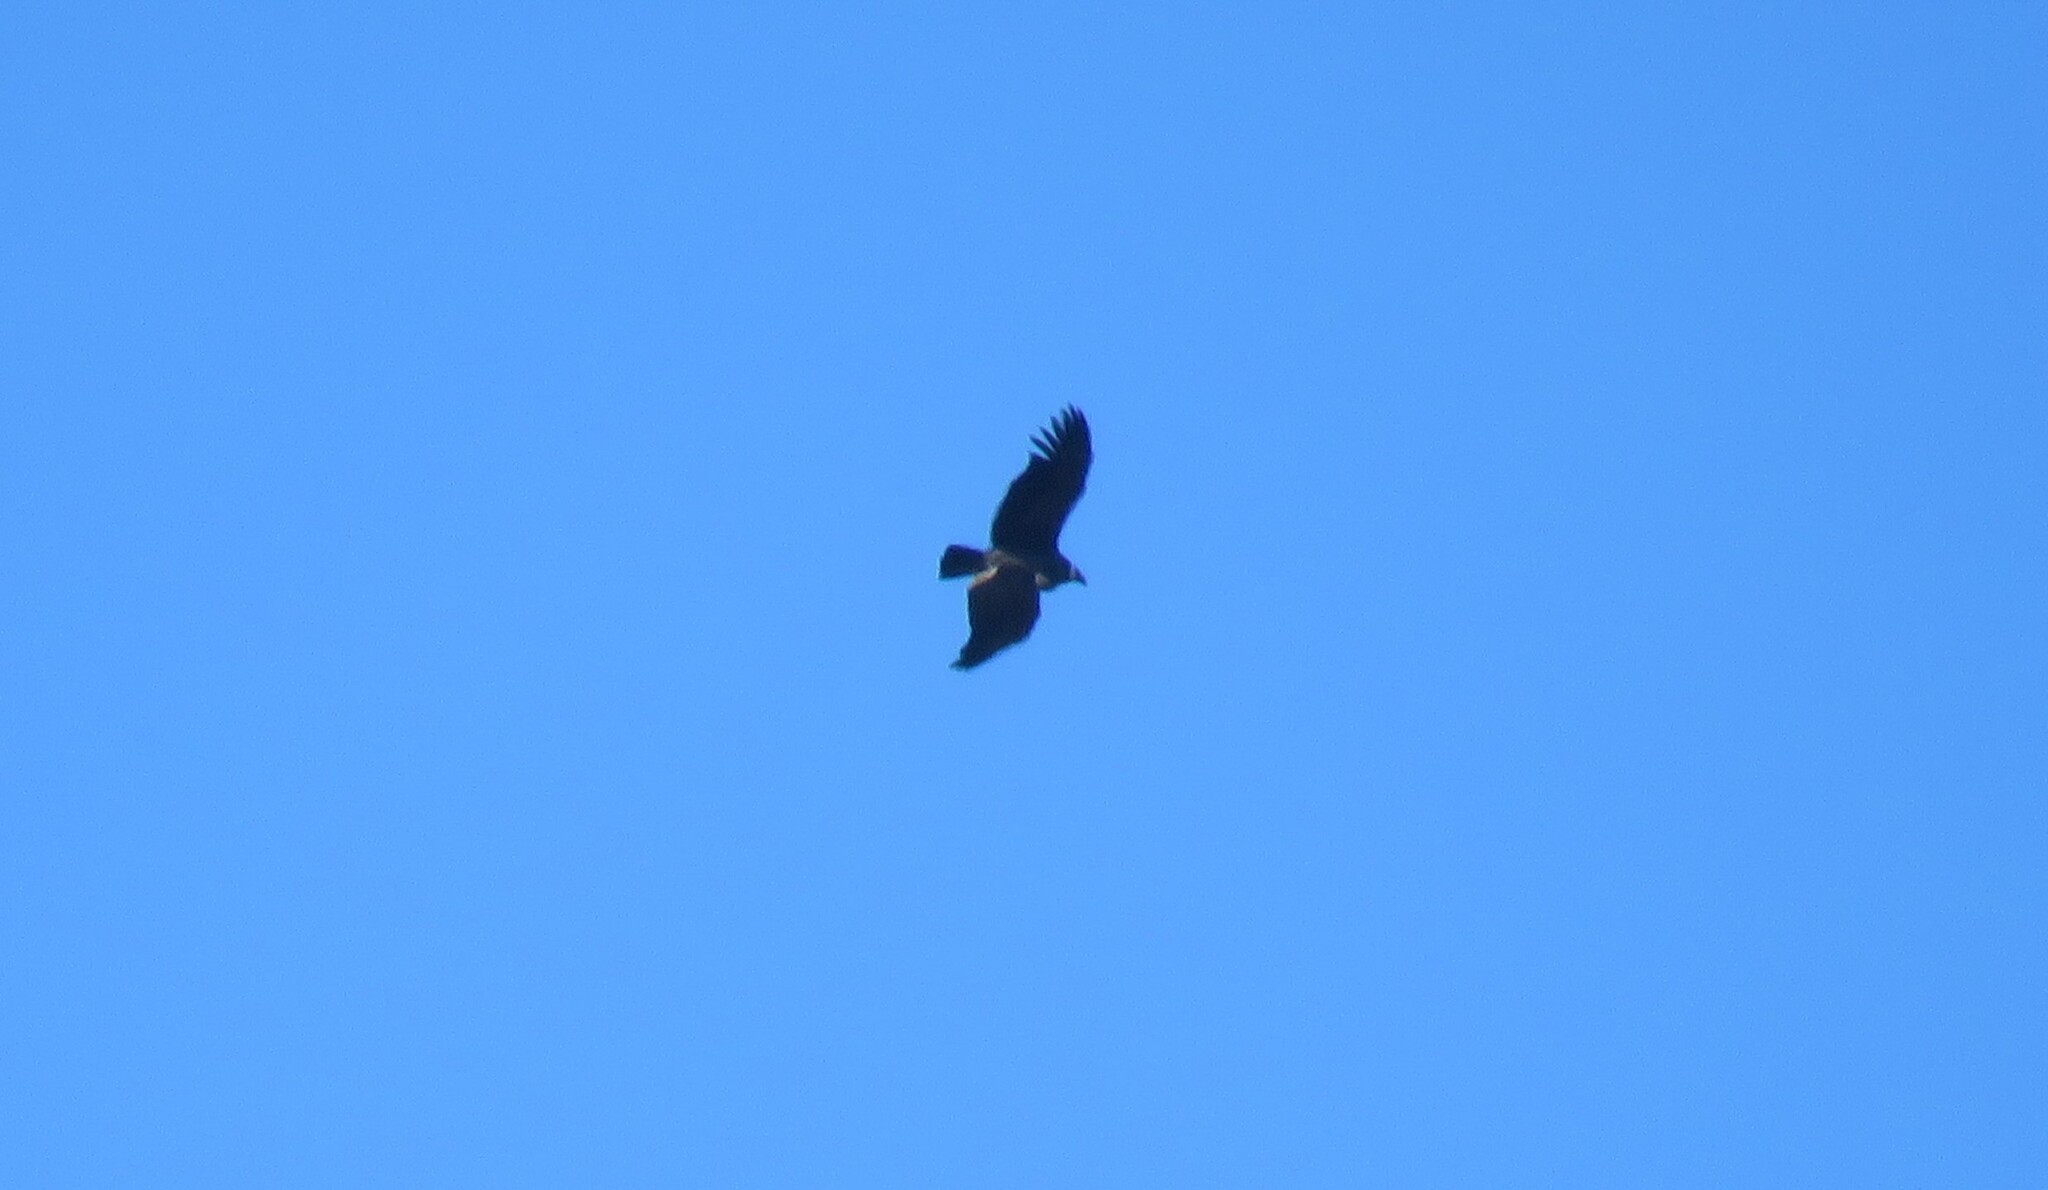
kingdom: Animalia
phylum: Chordata
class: Aves
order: Accipitriformes
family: Cathartidae
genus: Vultur
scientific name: Vultur gryphus
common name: Andean condor
